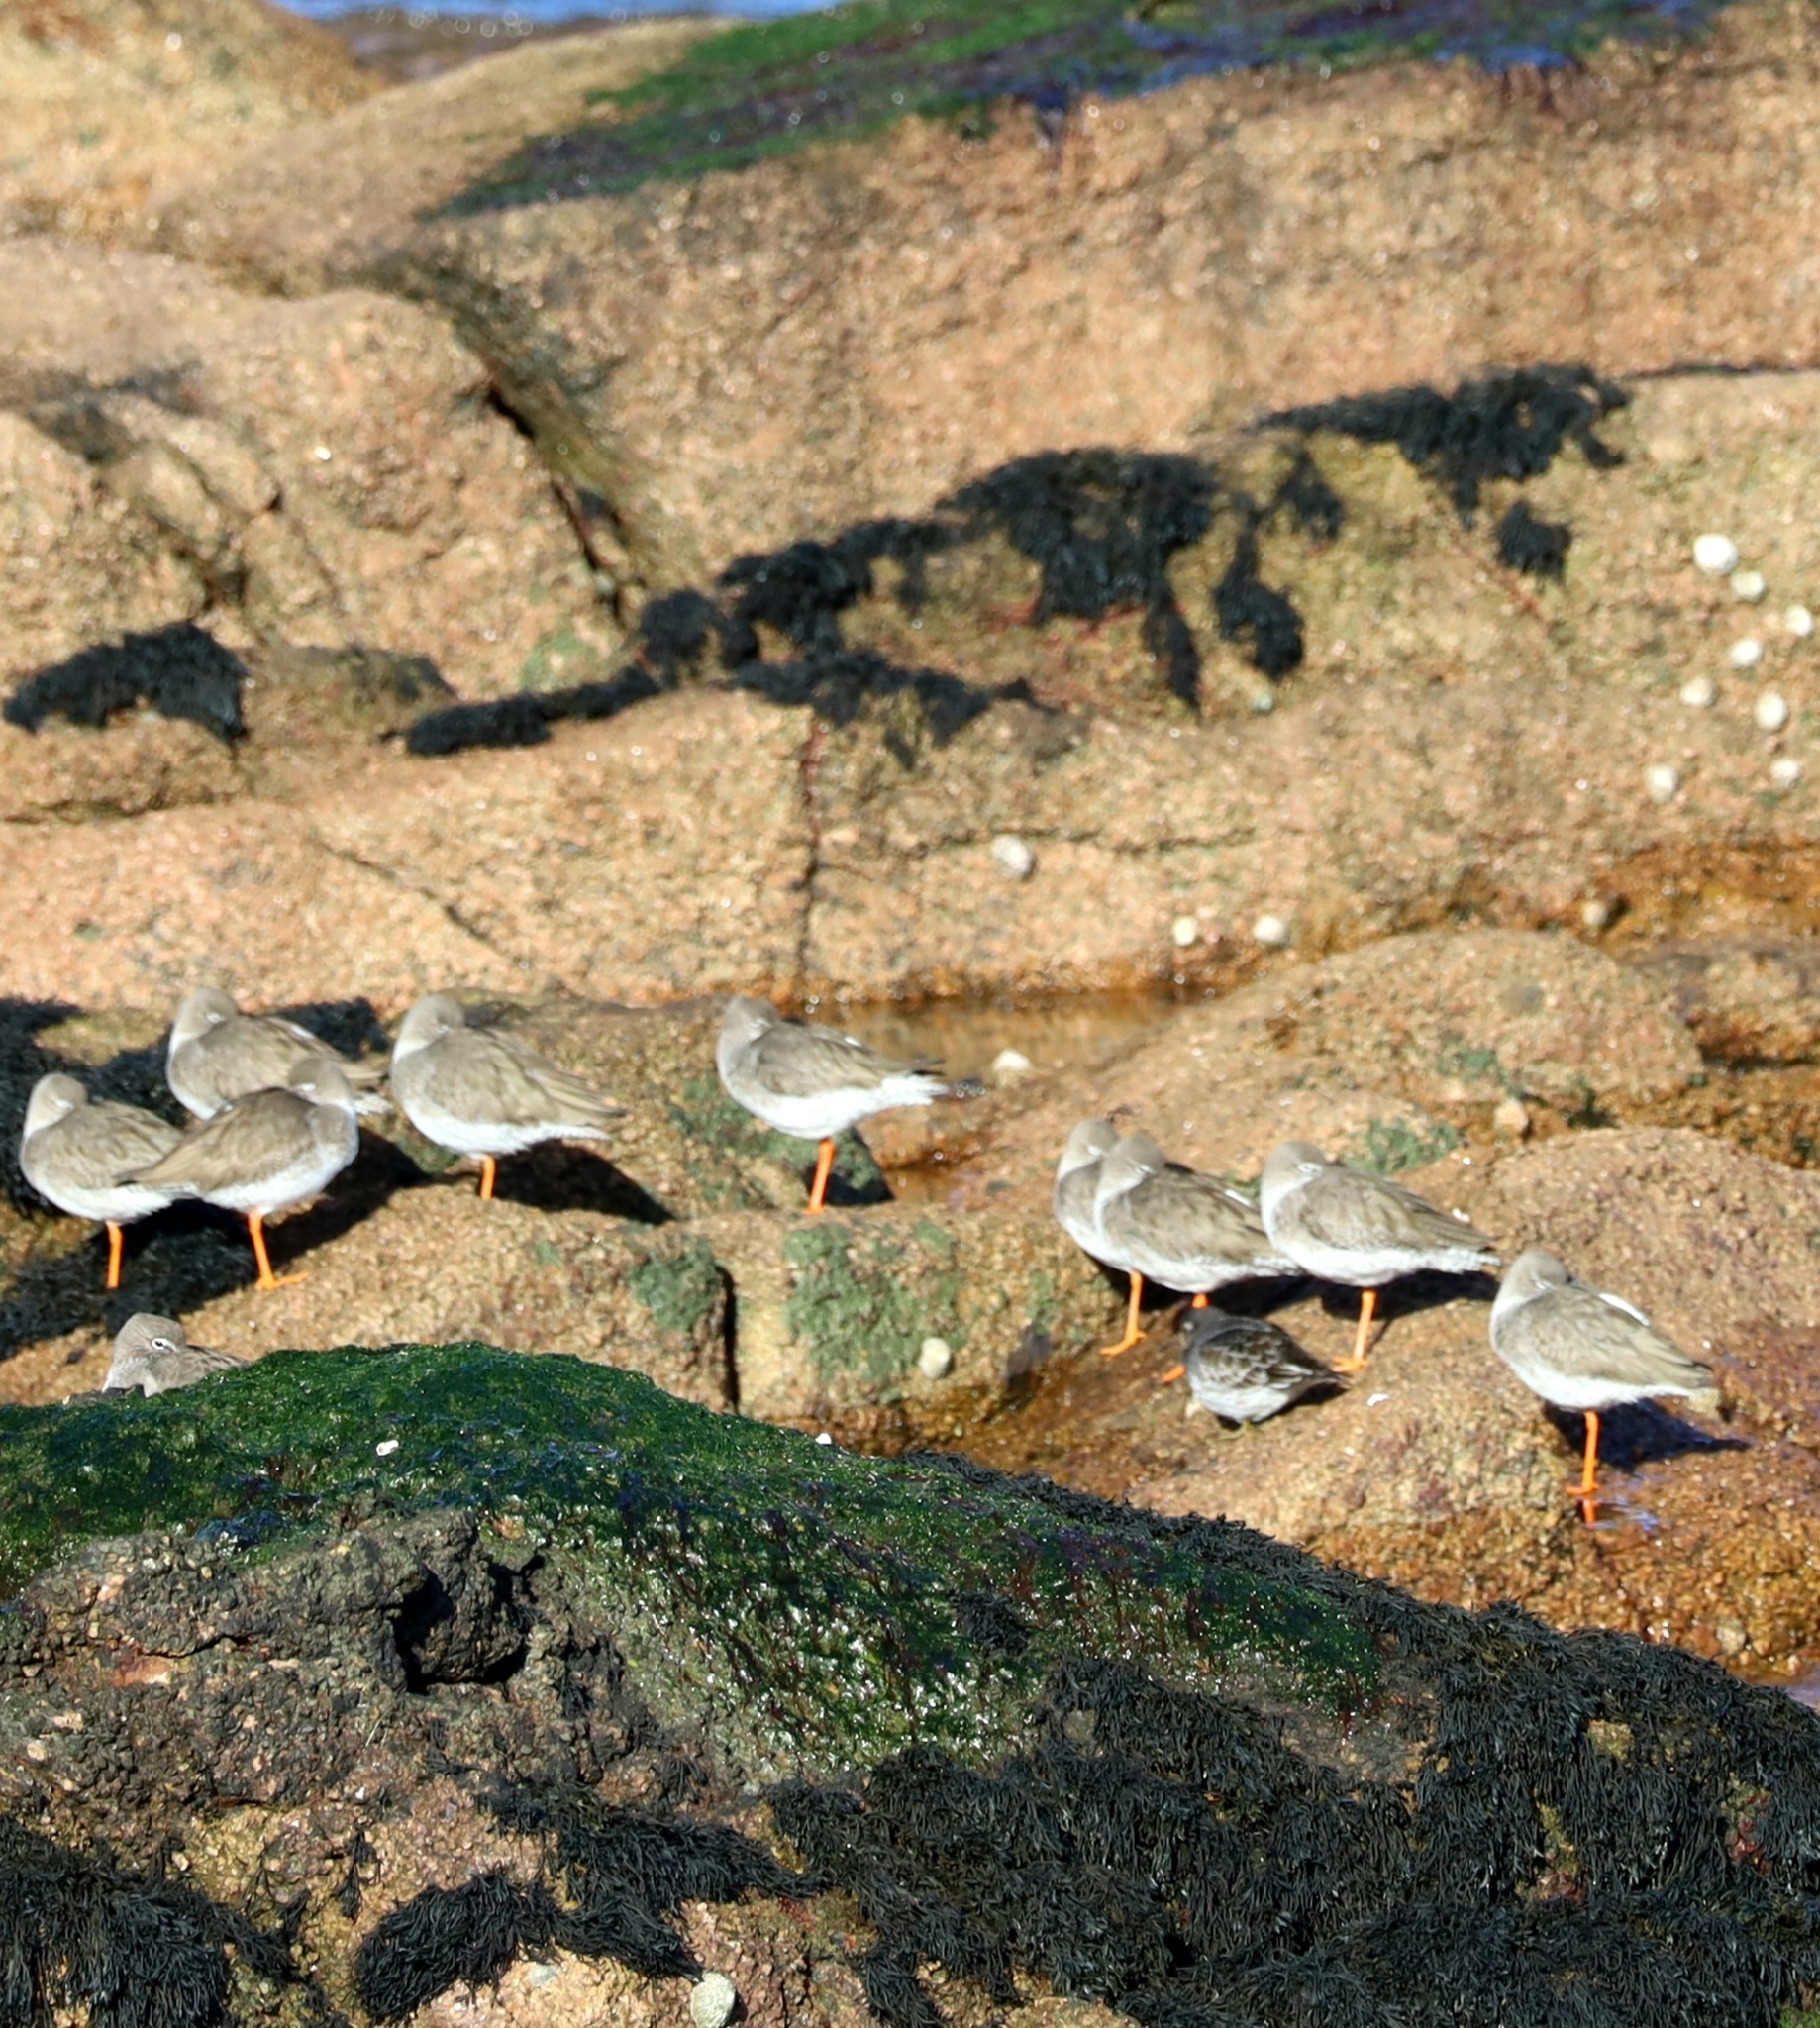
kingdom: Animalia
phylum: Chordata
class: Aves
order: Charadriiformes
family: Scolopacidae
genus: Tringa
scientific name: Tringa totanus
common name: Common redshank
